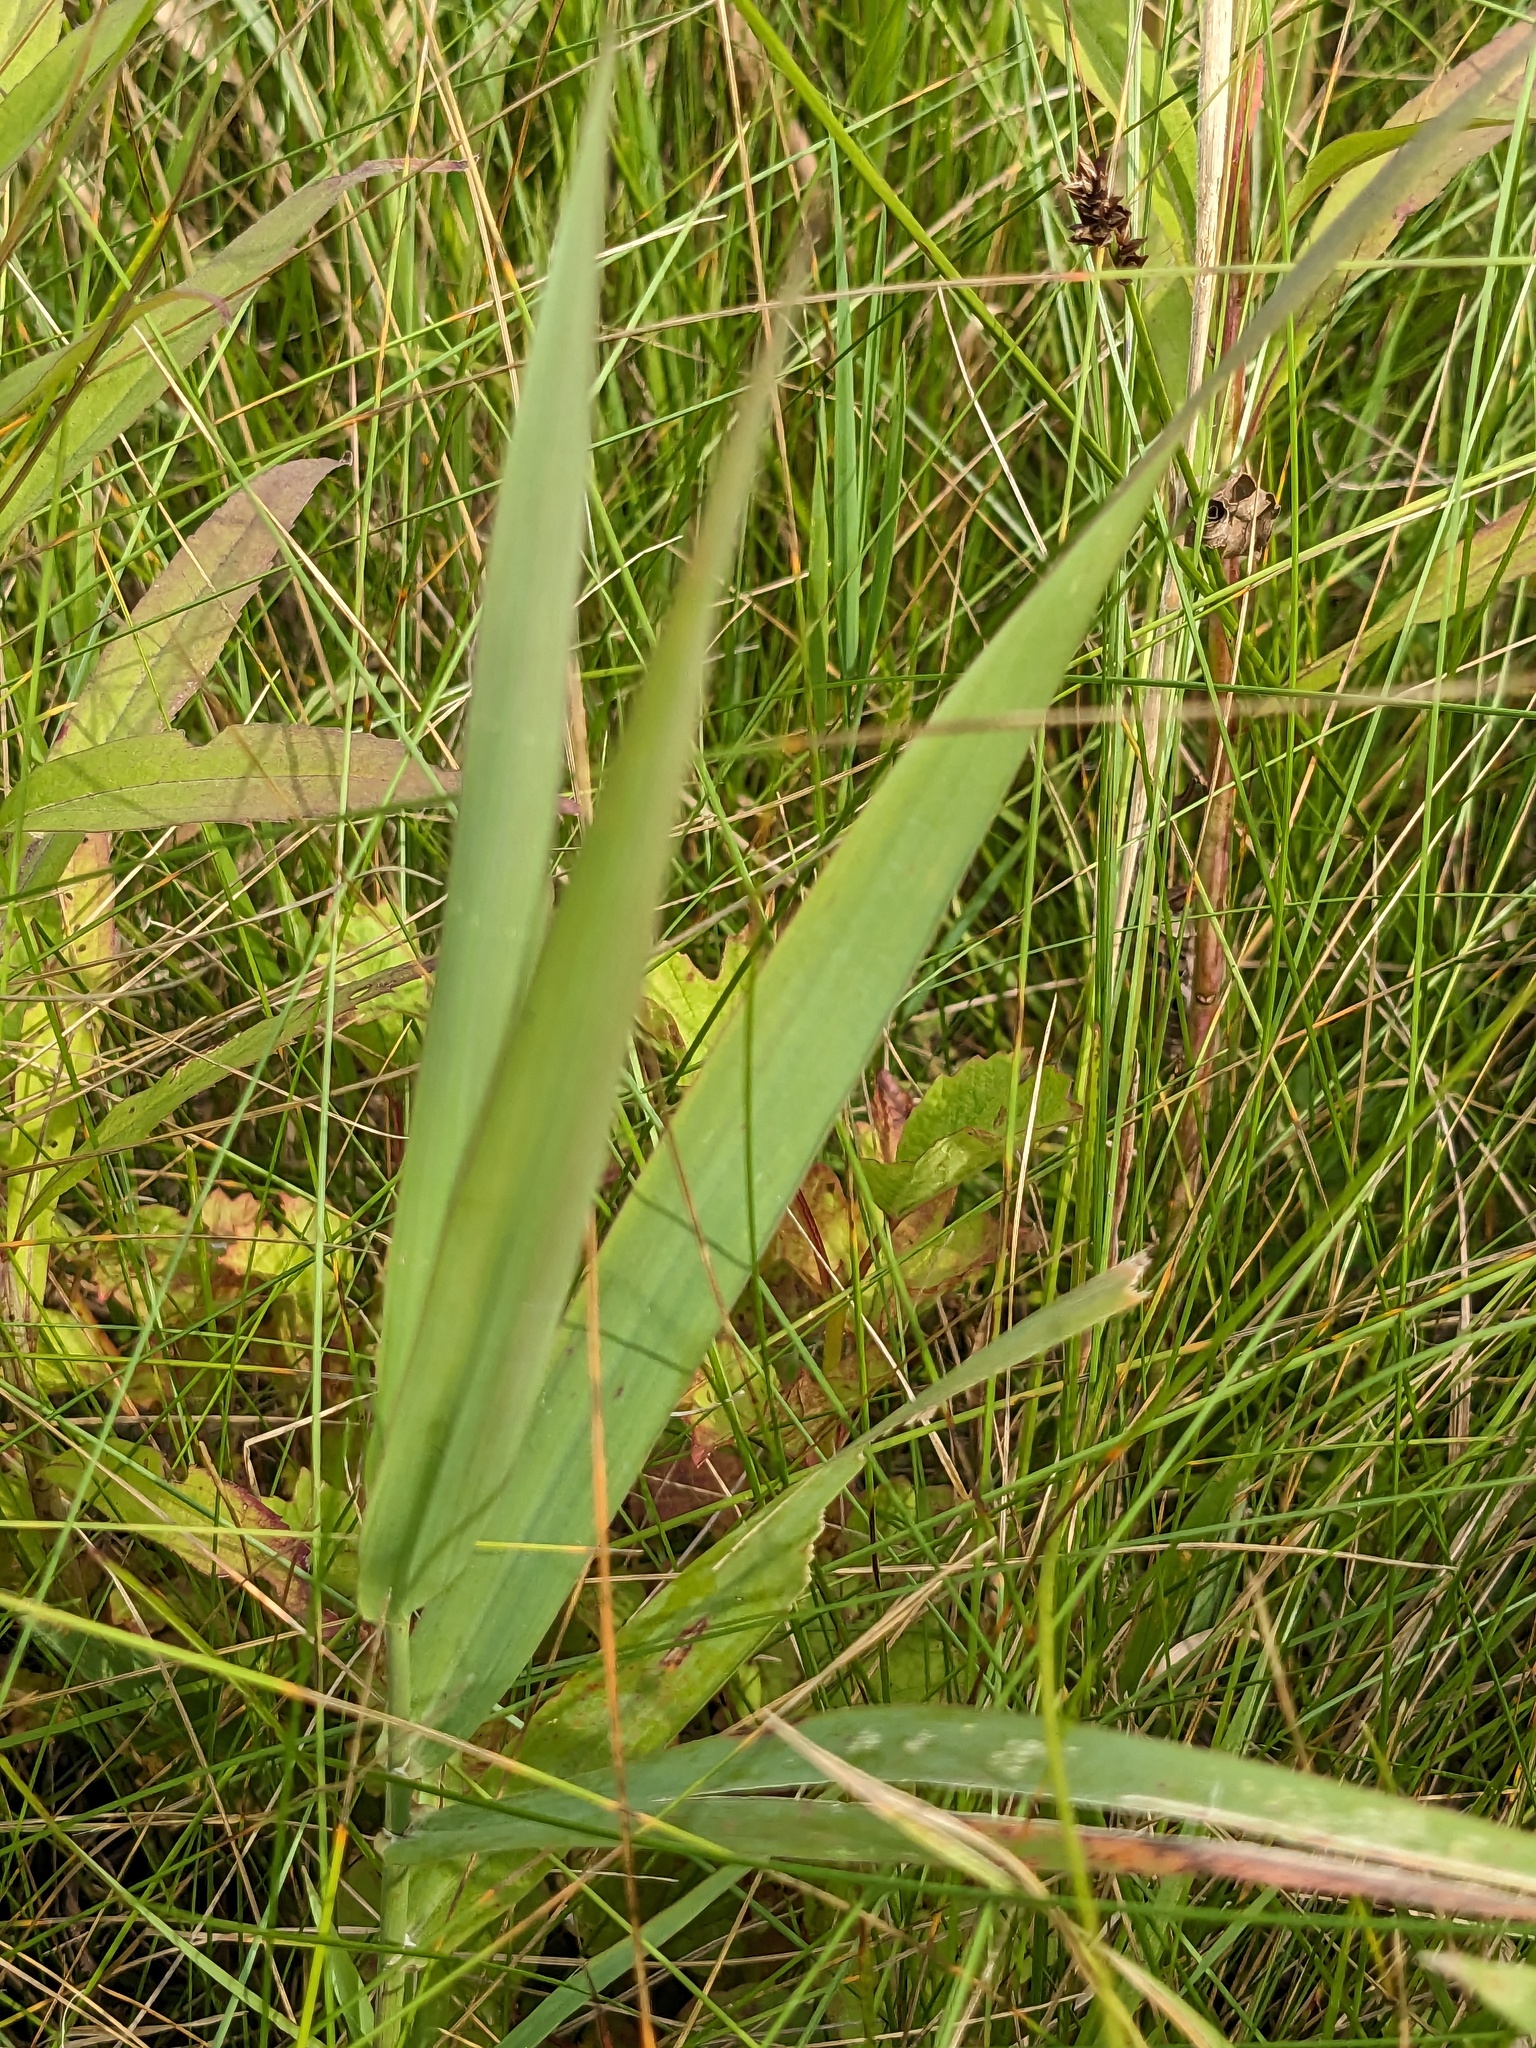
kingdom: Plantae
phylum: Tracheophyta
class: Liliopsida
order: Poales
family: Poaceae
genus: Phragmites
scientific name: Phragmites australis
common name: Common reed
